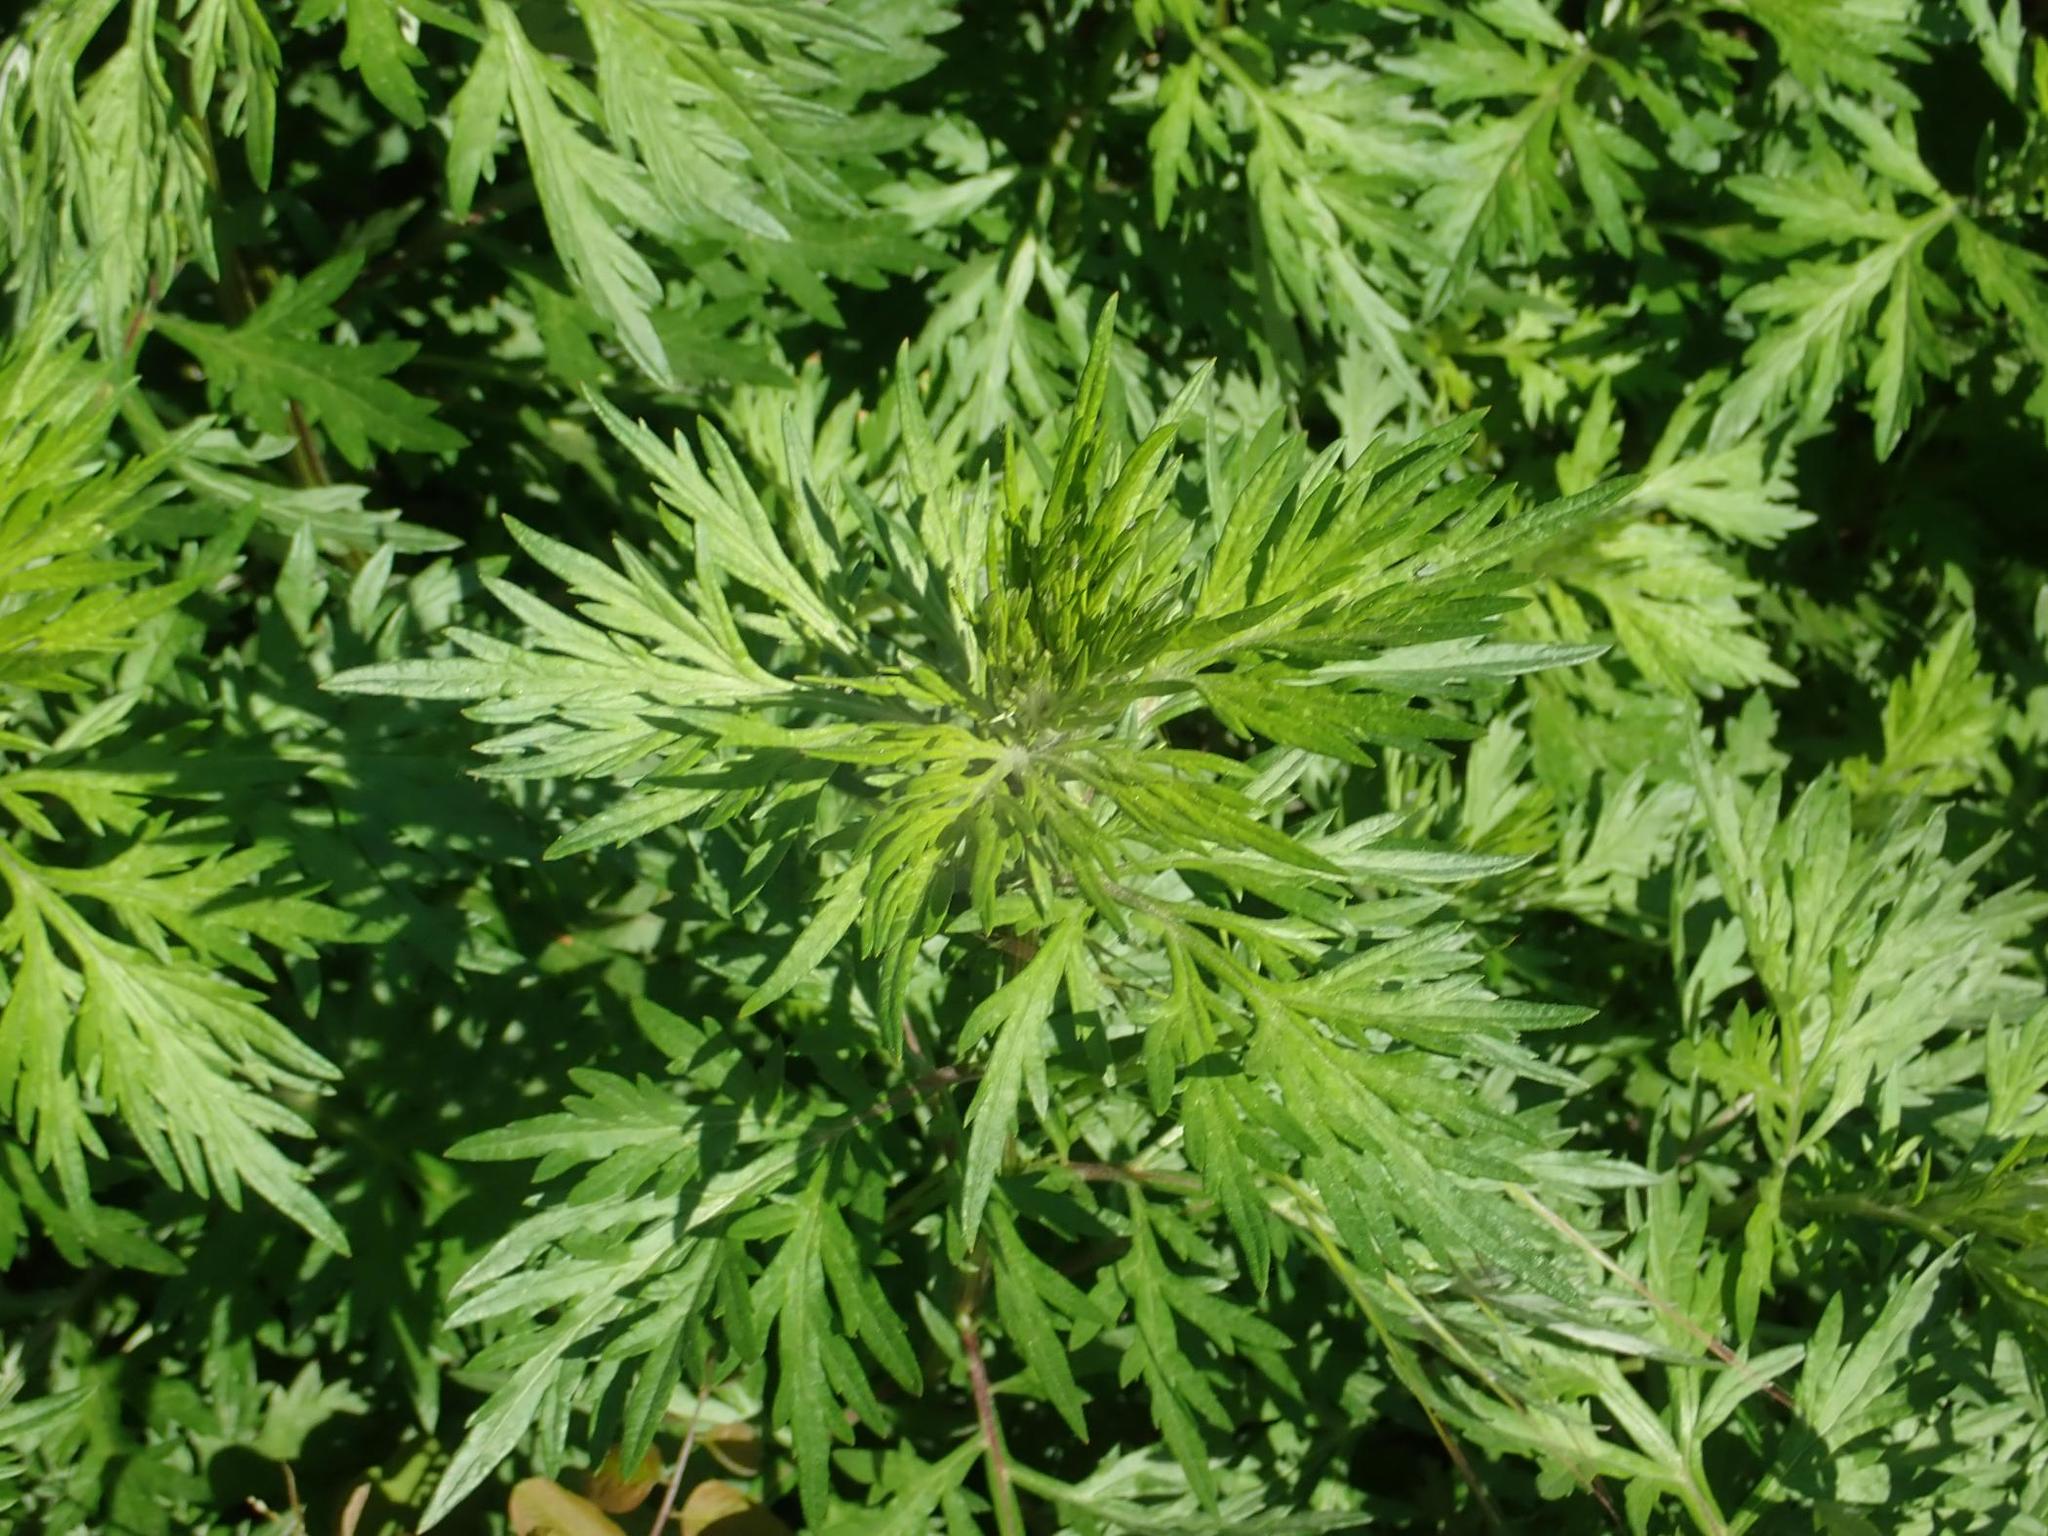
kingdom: Plantae
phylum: Tracheophyta
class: Magnoliopsida
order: Asterales
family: Asteraceae
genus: Artemisia
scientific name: Artemisia vulgaris
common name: Mugwort
